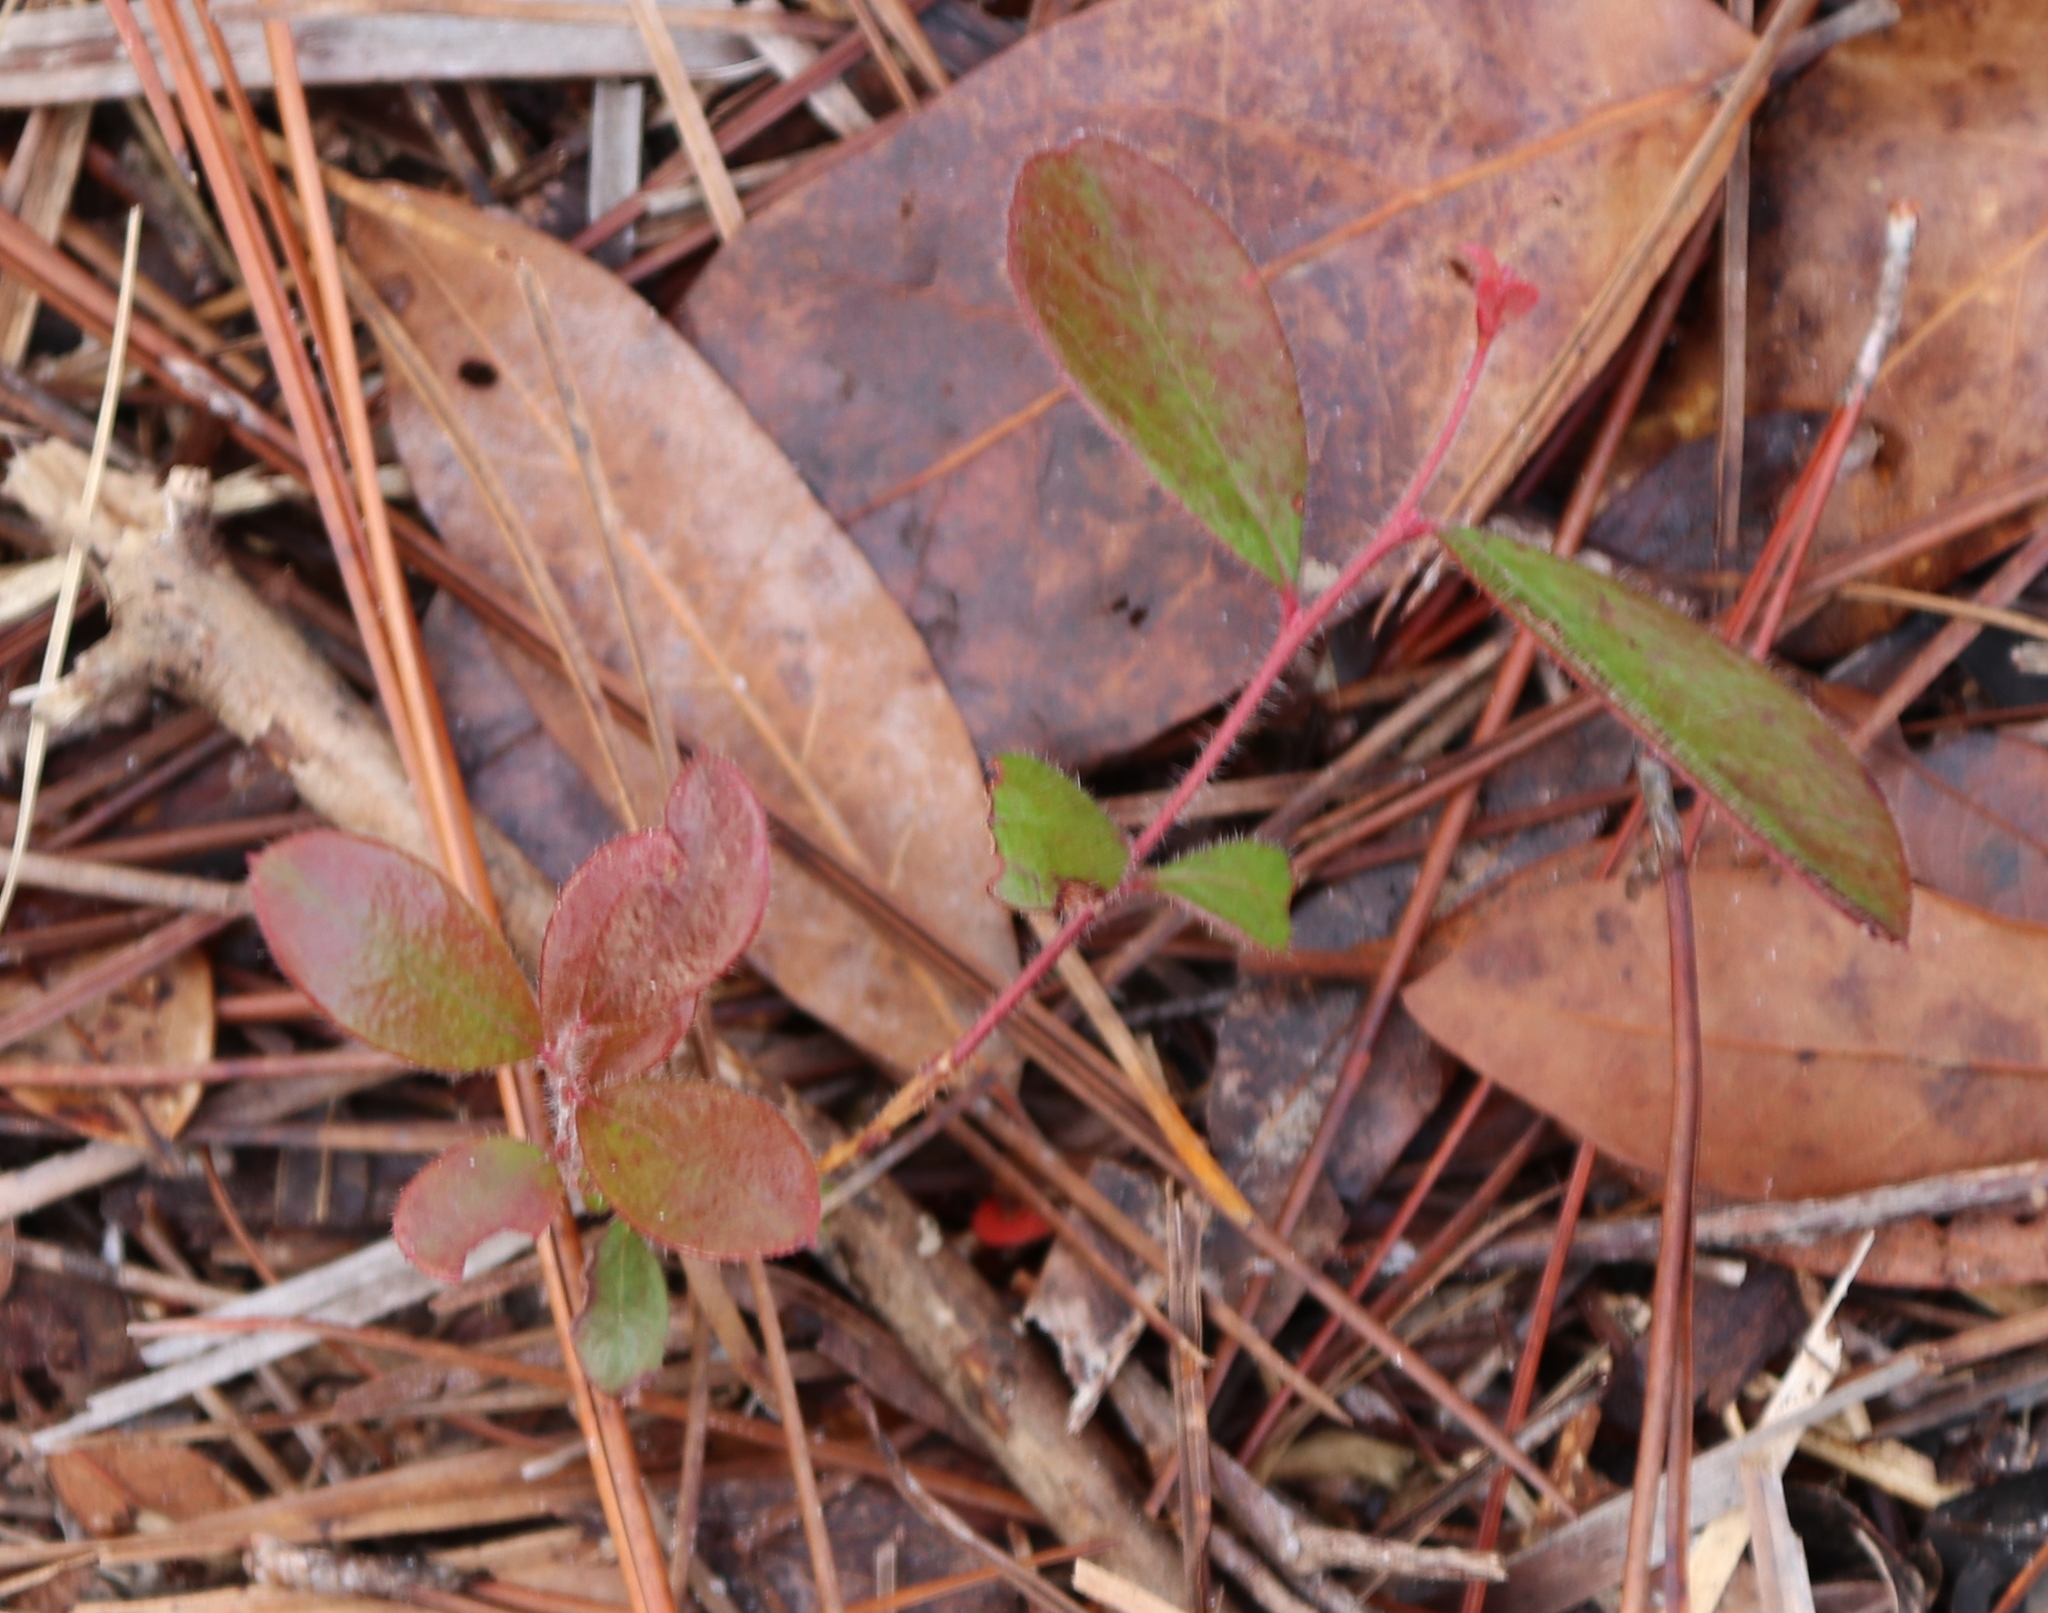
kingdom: Plantae
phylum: Tracheophyta
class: Magnoliopsida
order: Ericales
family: Ericaceae
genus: Gaylussacia
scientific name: Gaylussacia mosieri
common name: Hirsute huckleberry
